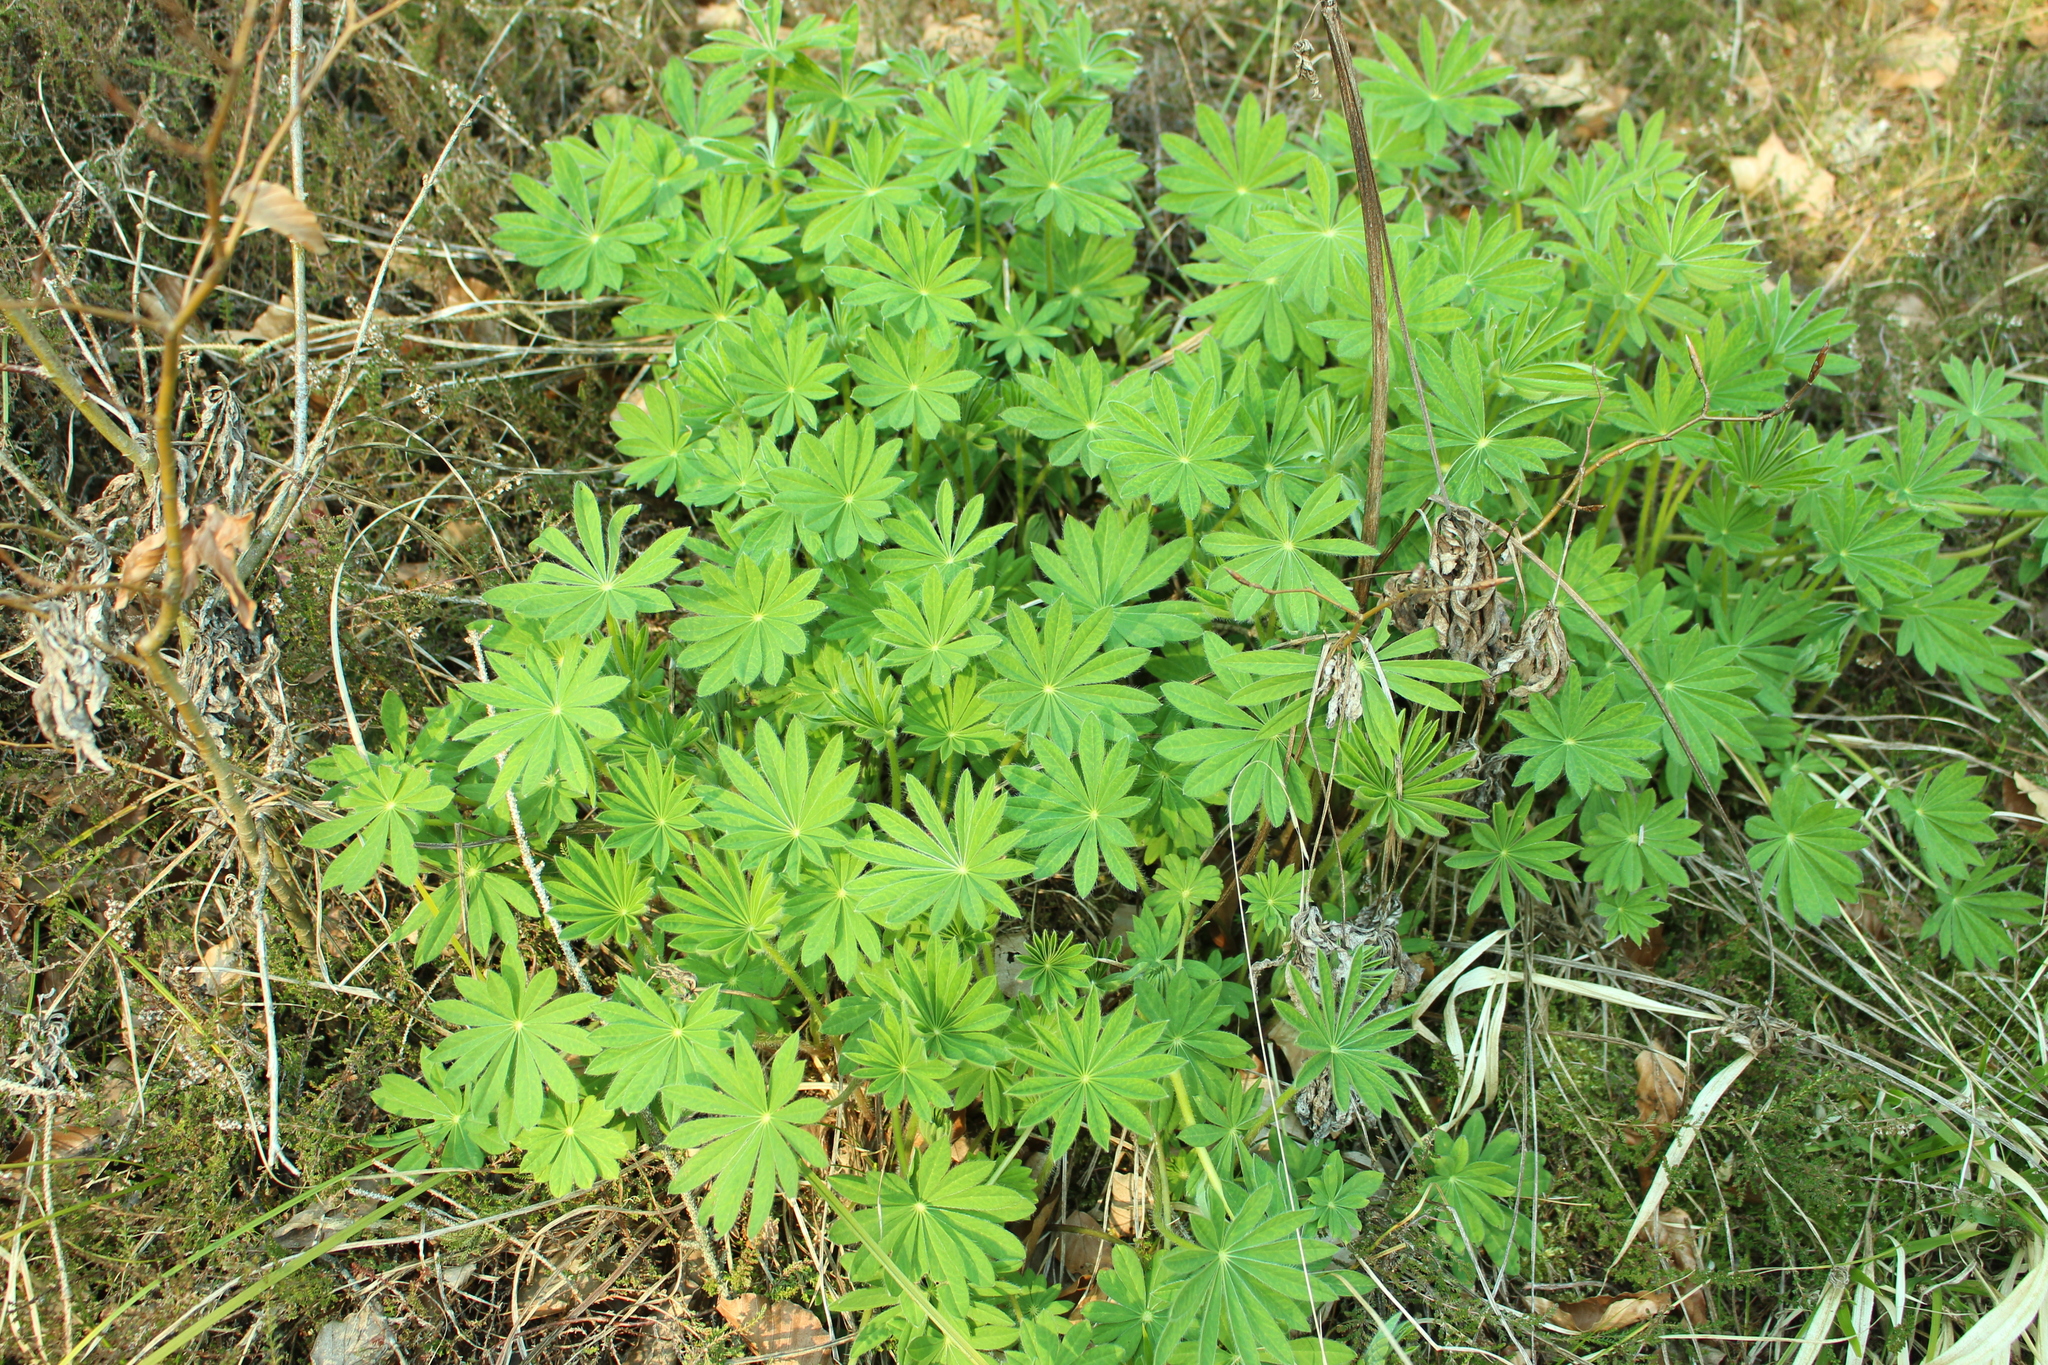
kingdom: Plantae
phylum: Tracheophyta
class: Magnoliopsida
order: Fabales
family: Fabaceae
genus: Lupinus
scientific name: Lupinus polyphyllus
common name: Garden lupin
